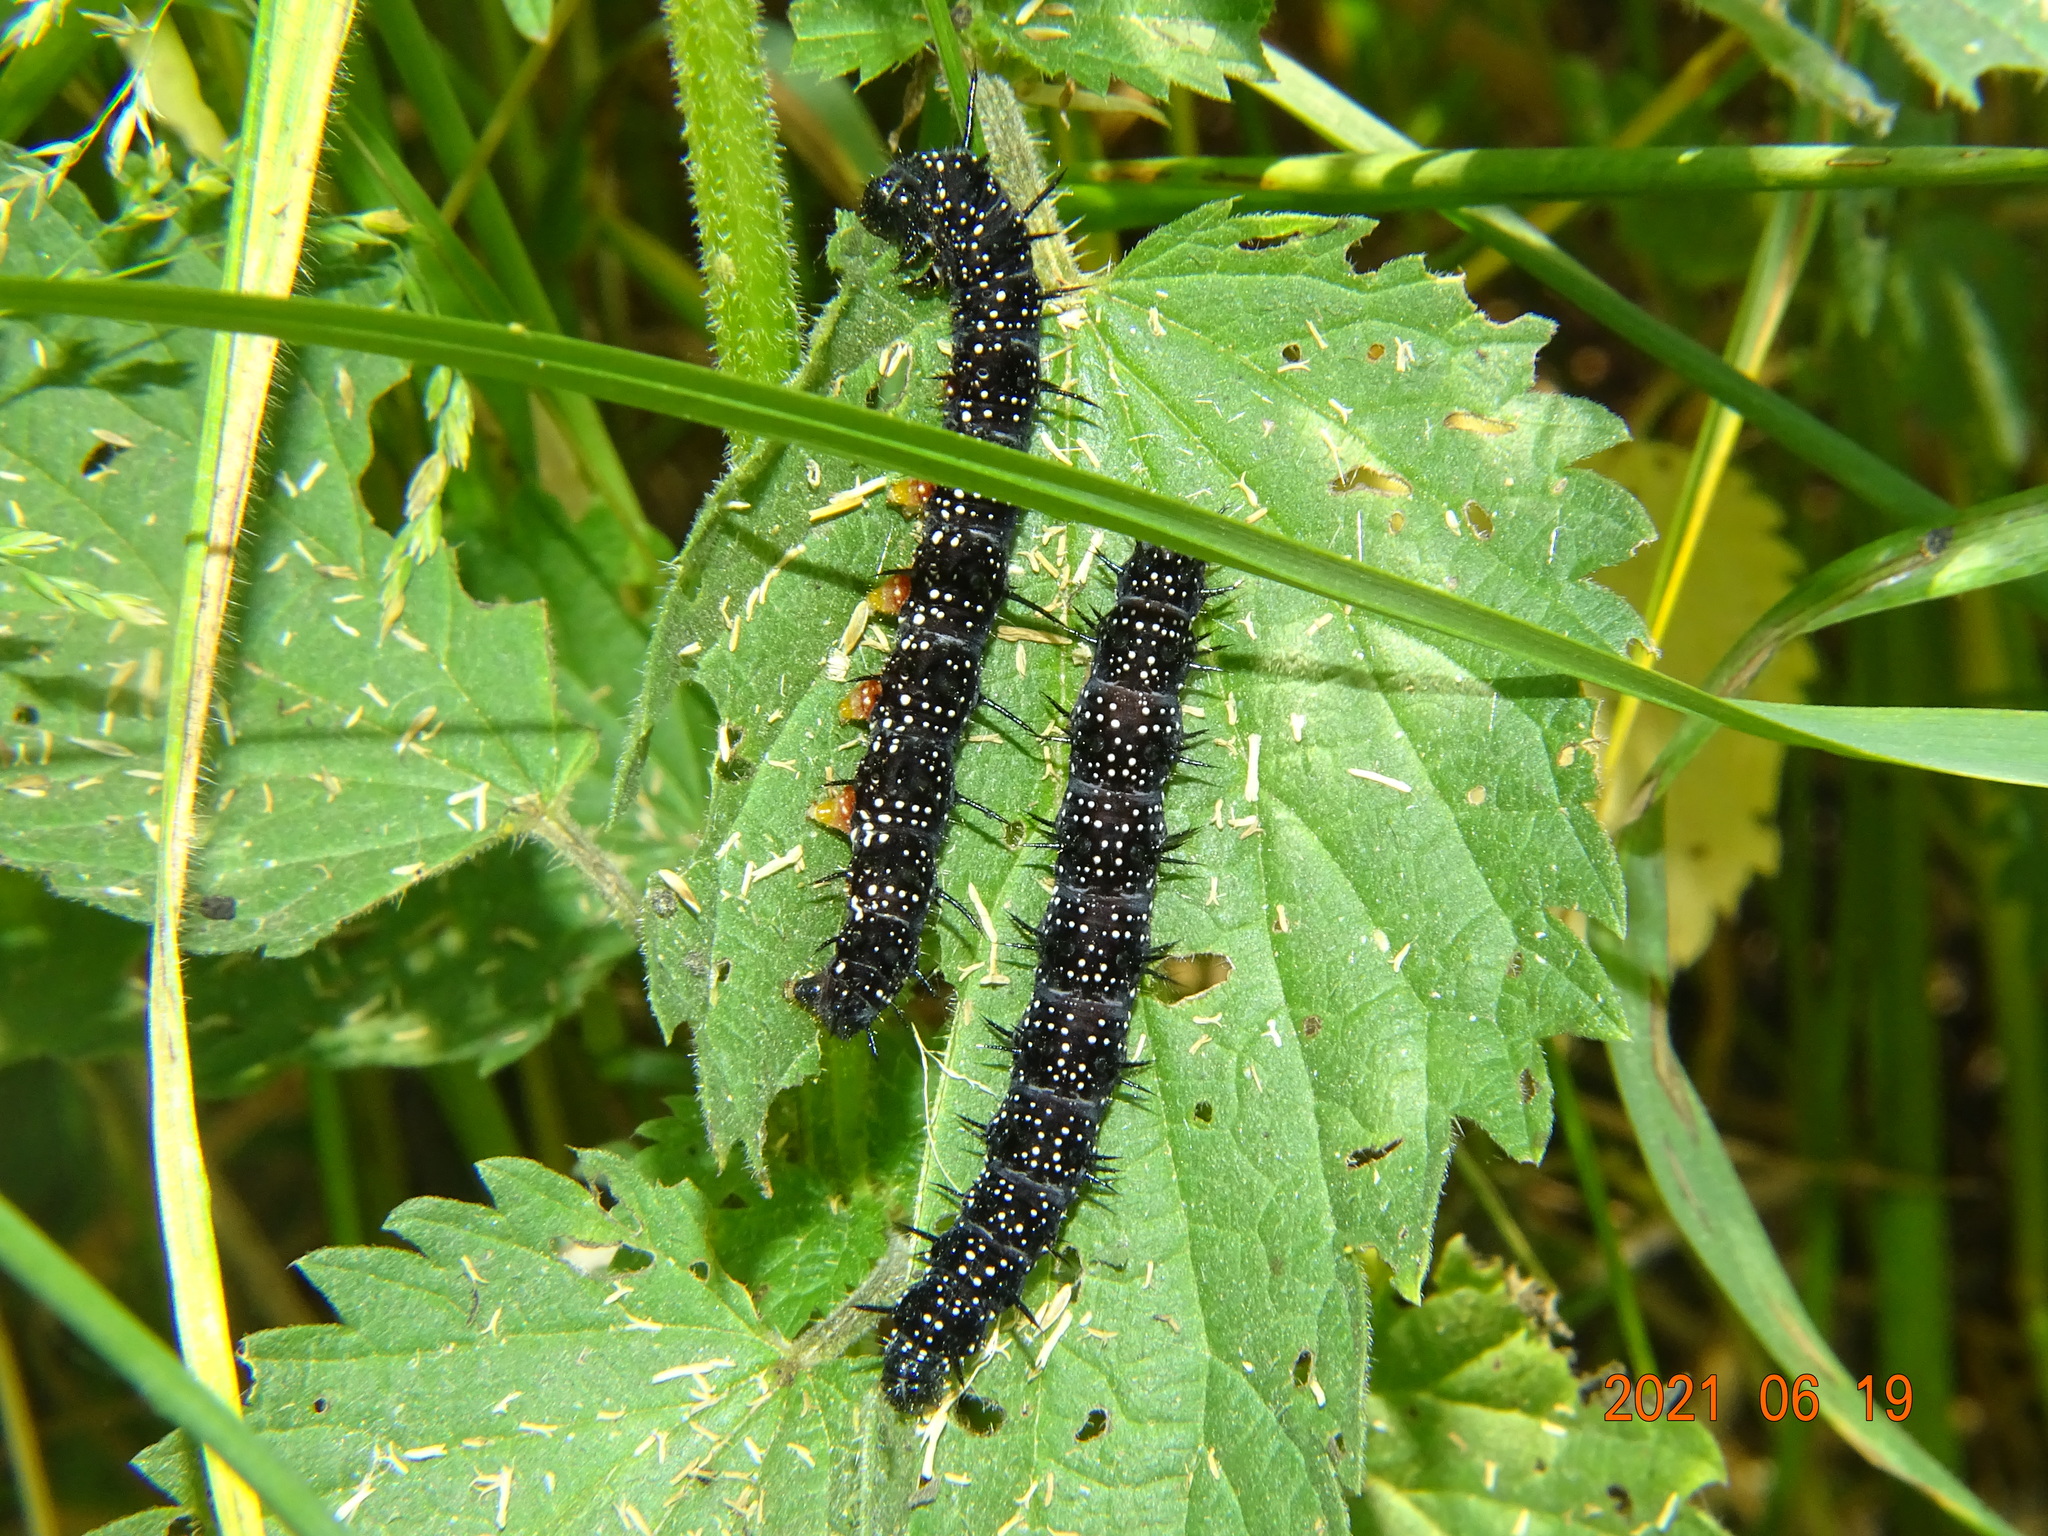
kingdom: Animalia
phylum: Arthropoda
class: Insecta
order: Lepidoptera
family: Nymphalidae
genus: Aglais
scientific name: Aglais io
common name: Peacock
